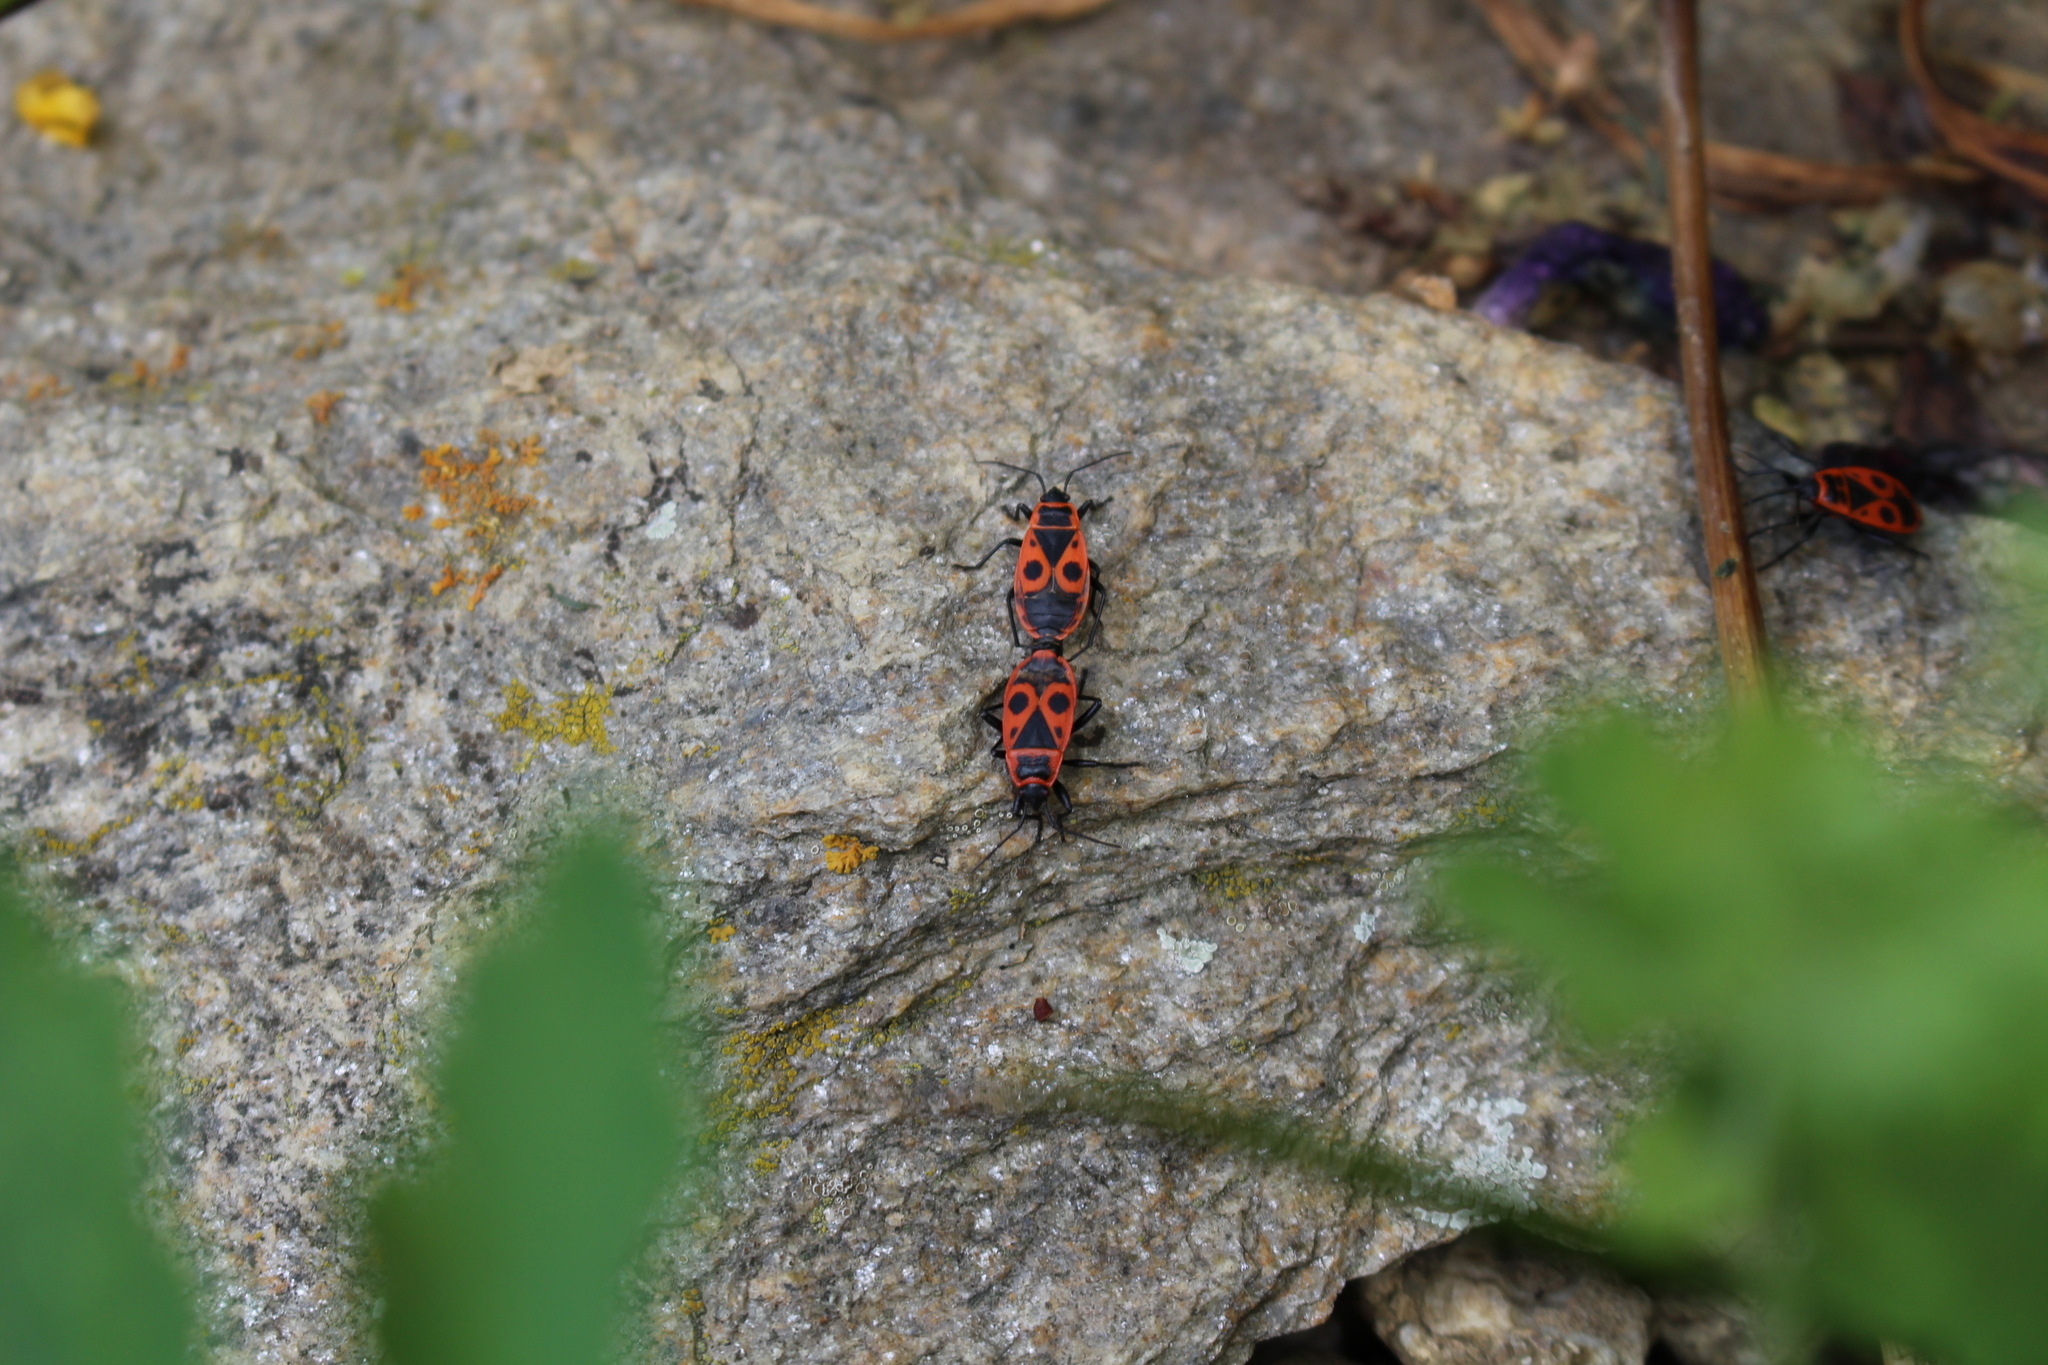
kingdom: Animalia
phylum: Arthropoda
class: Insecta
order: Hemiptera
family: Pyrrhocoridae
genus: Pyrrhocoris
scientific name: Pyrrhocoris apterus
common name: Firebug
